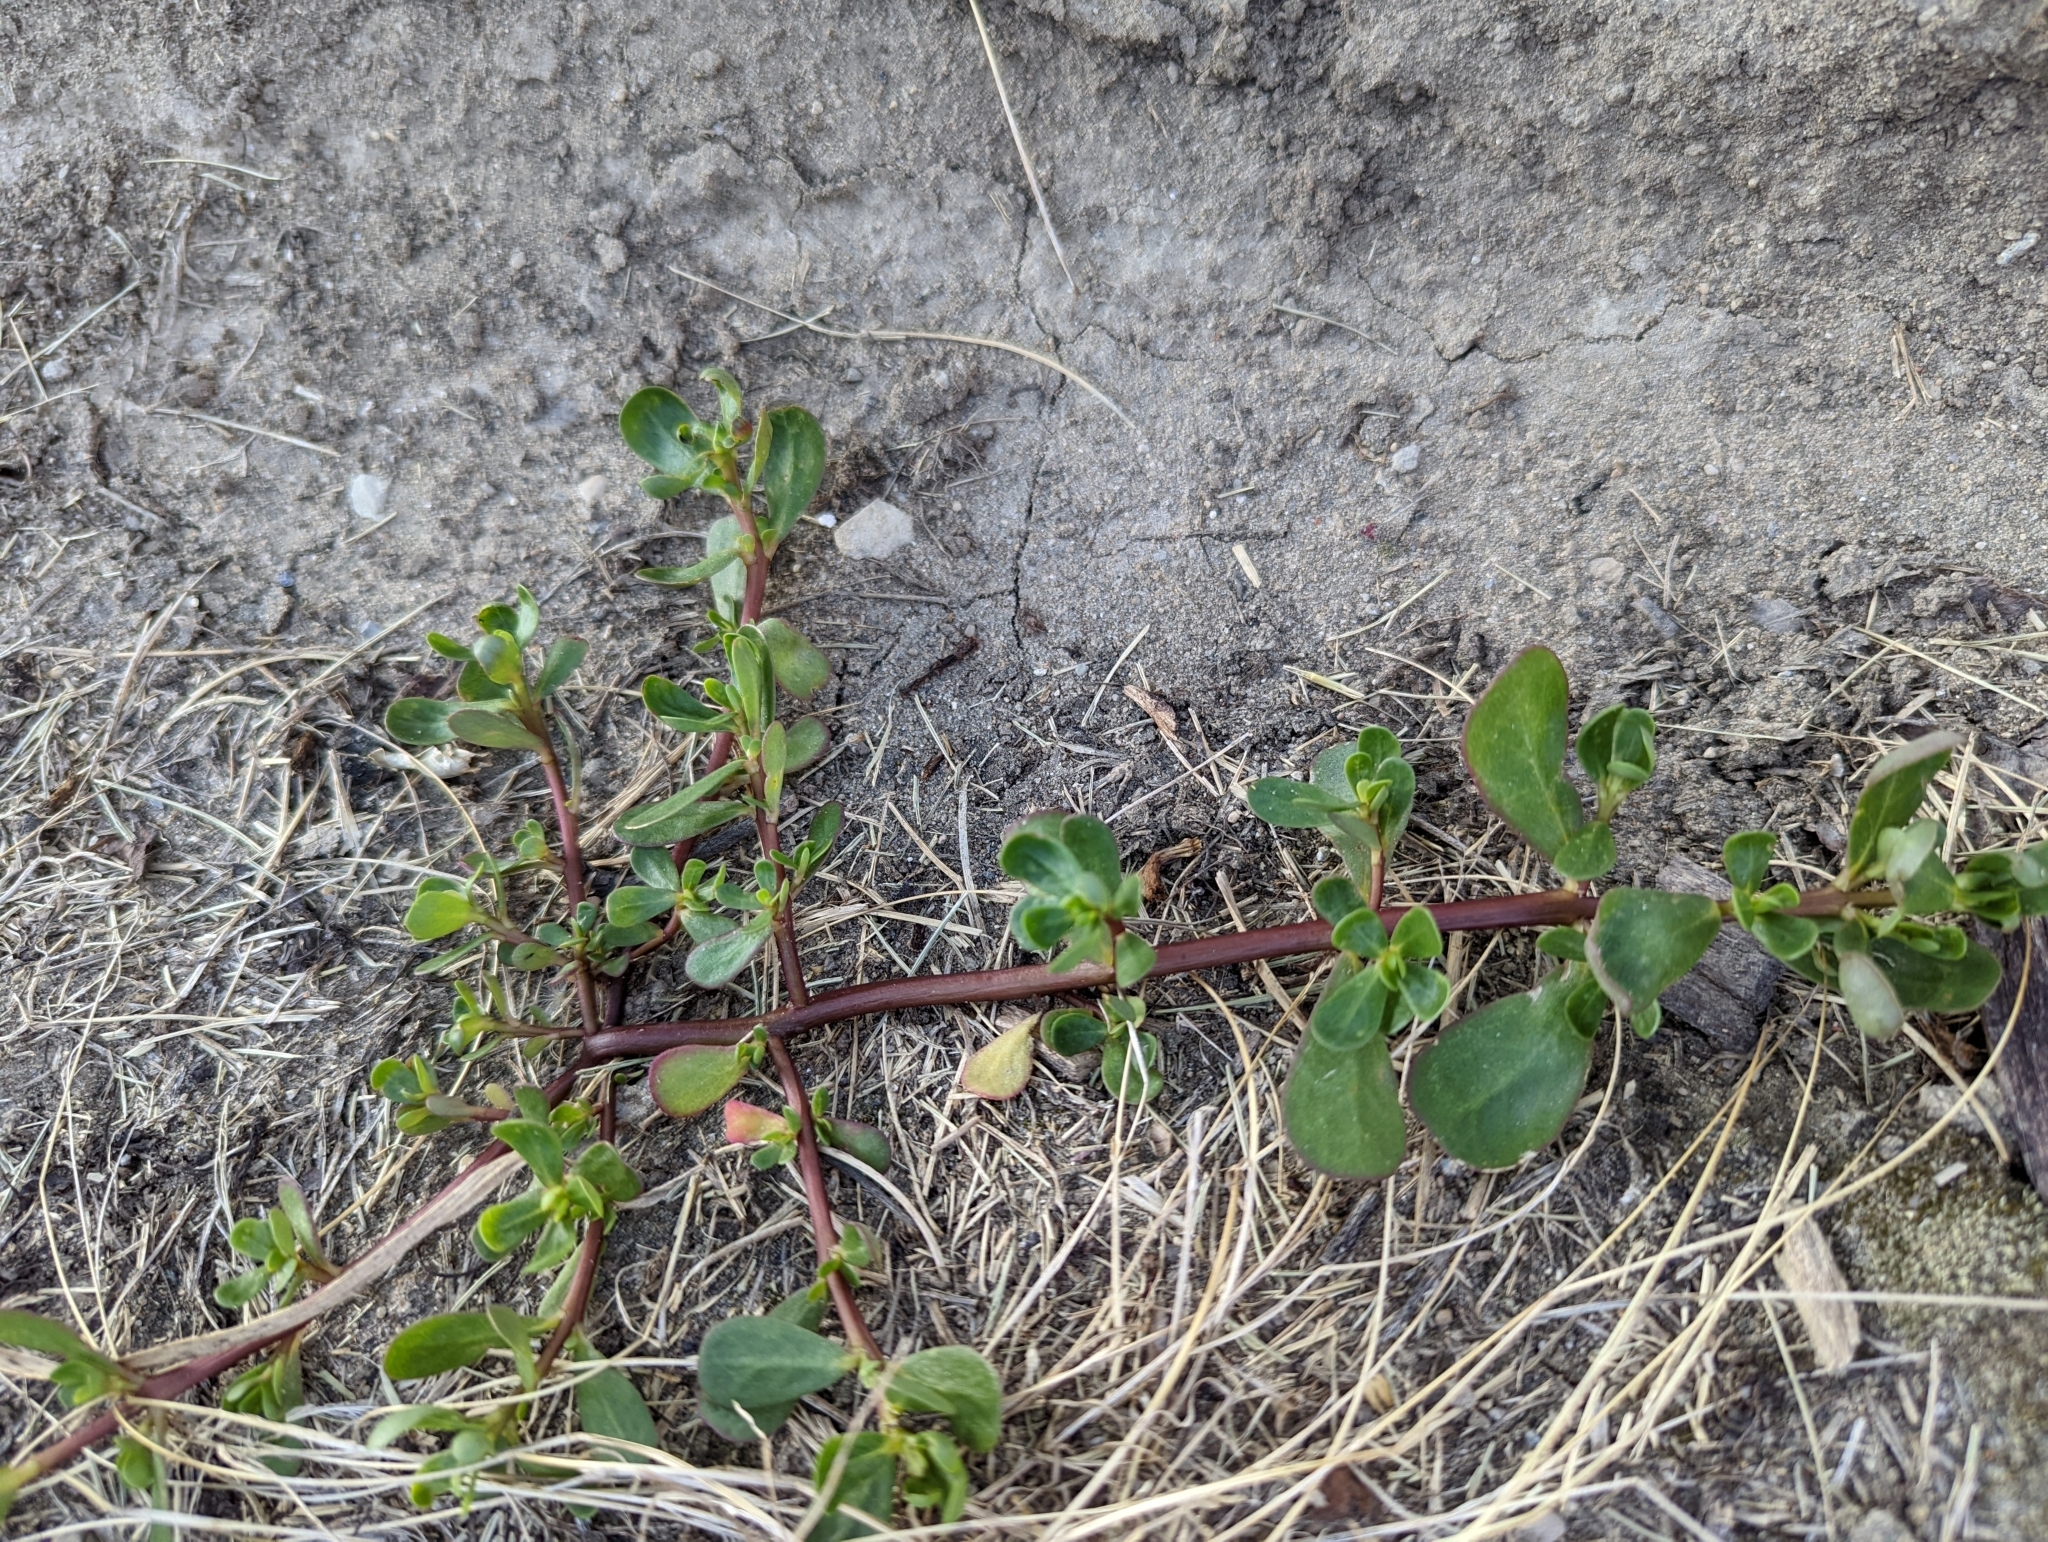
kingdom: Plantae
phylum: Tracheophyta
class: Magnoliopsida
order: Caryophyllales
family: Portulacaceae
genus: Portulaca
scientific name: Portulaca oleracea
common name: Common purslane
